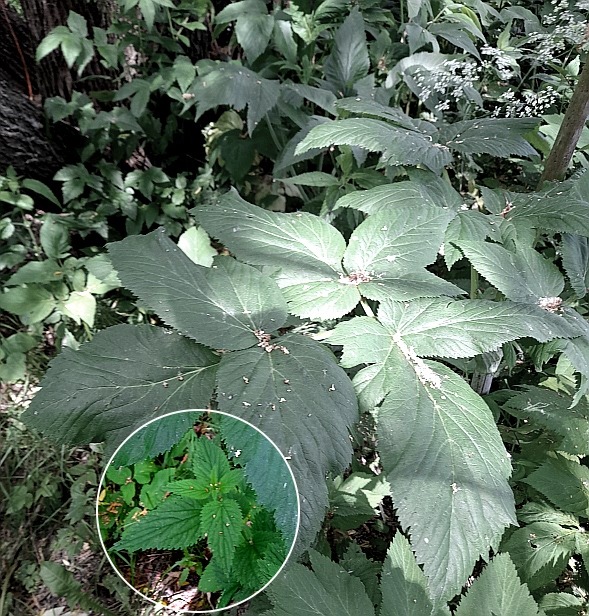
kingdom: Plantae
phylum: Tracheophyta
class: Magnoliopsida
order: Rosales
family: Urticaceae
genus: Urtica
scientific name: Urtica dioica
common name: Common nettle
